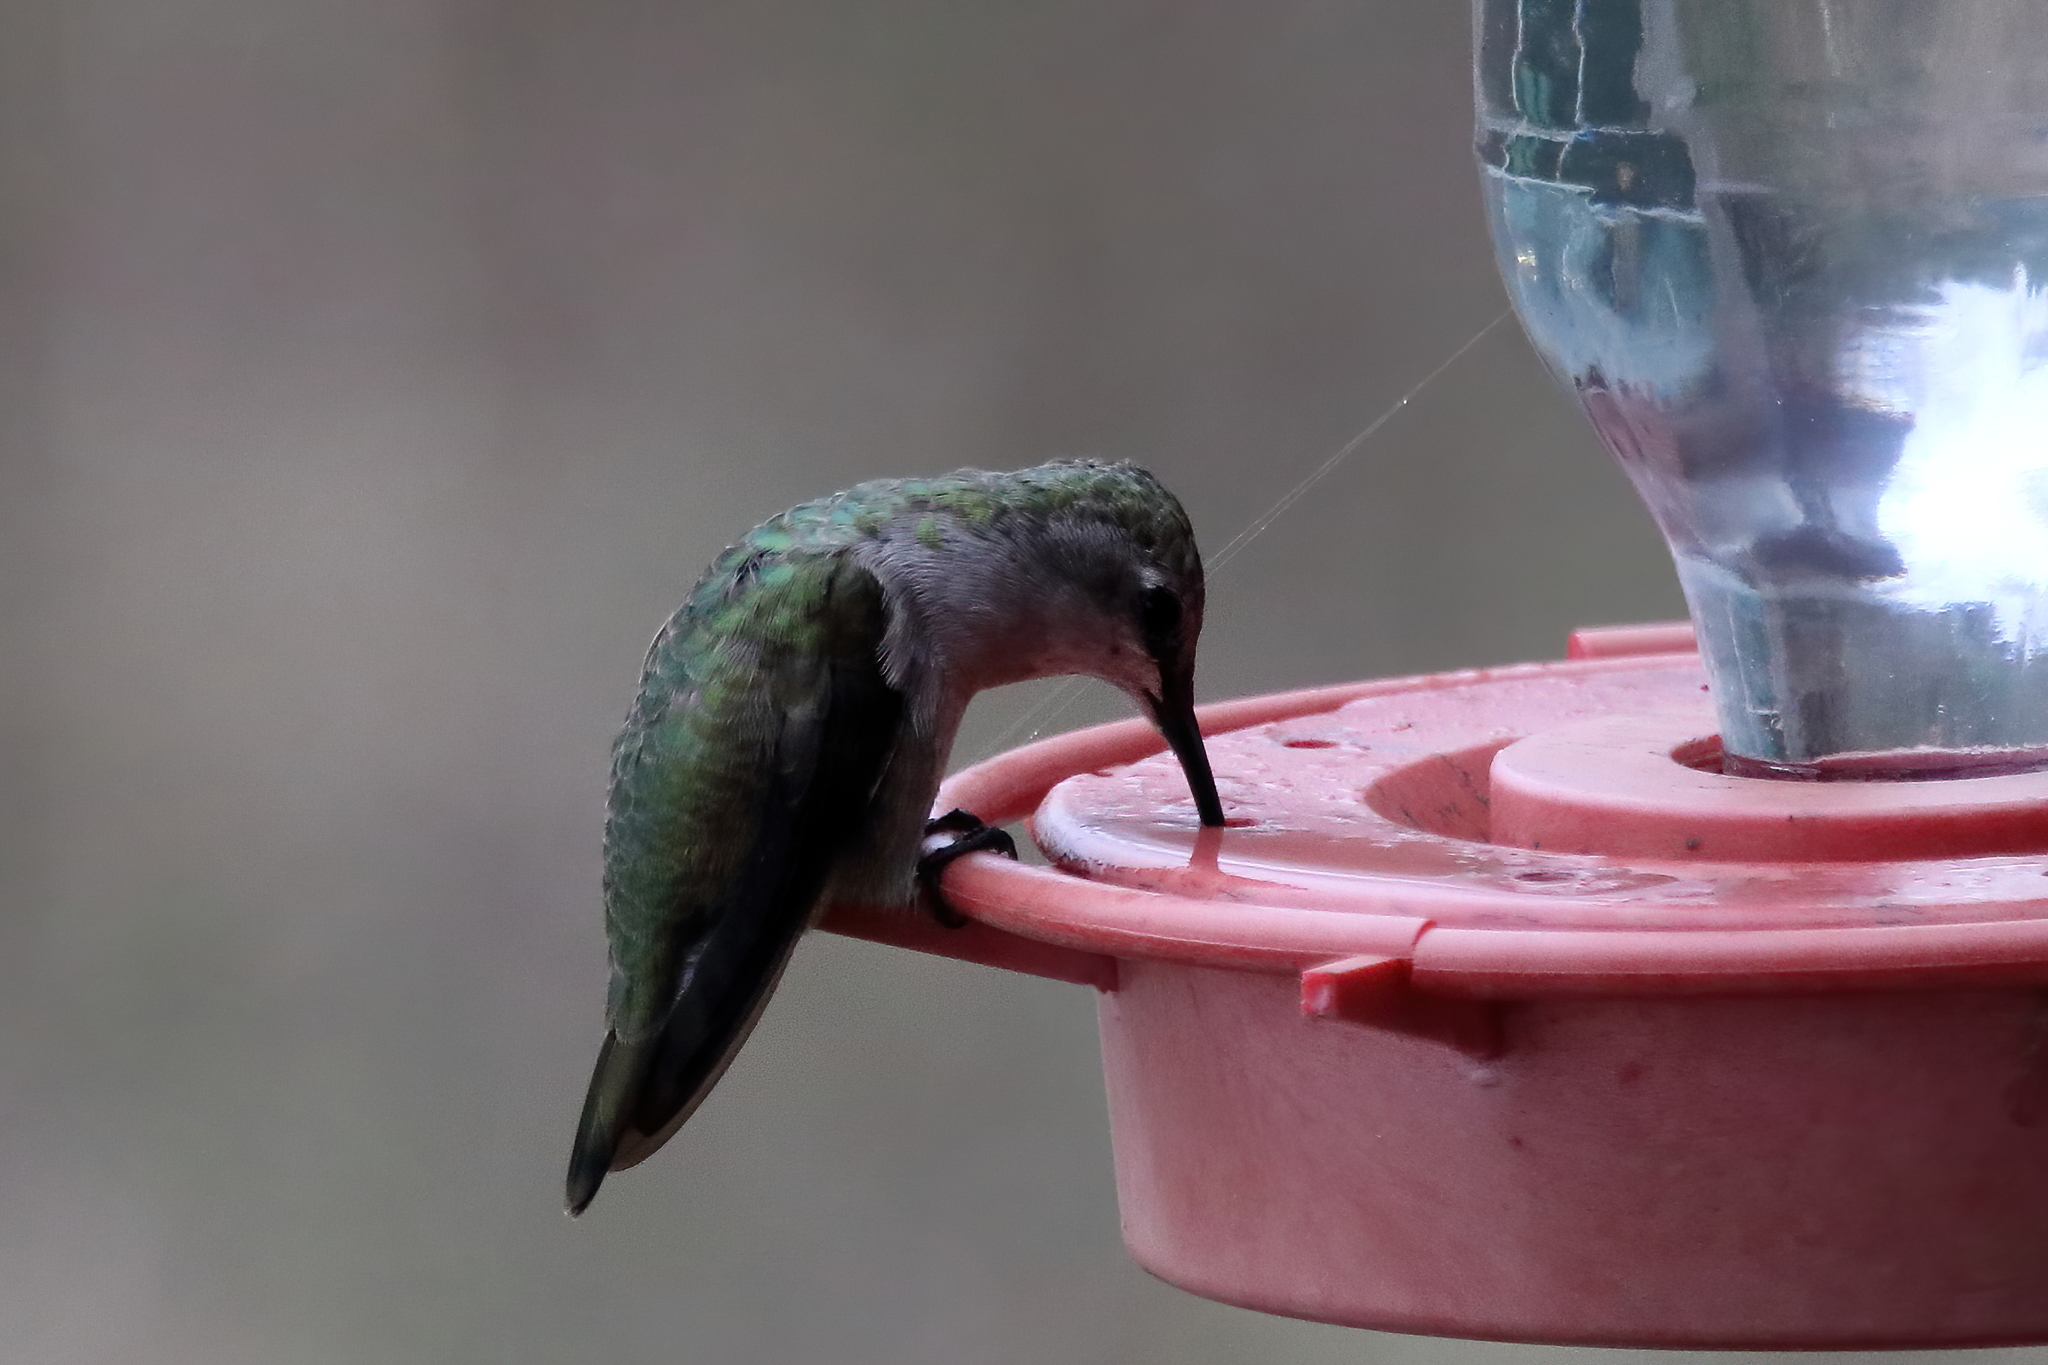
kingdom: Animalia
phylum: Chordata
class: Aves
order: Apodiformes
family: Trochilidae
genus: Archilochus
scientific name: Archilochus alexandri
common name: Black-chinned hummingbird
